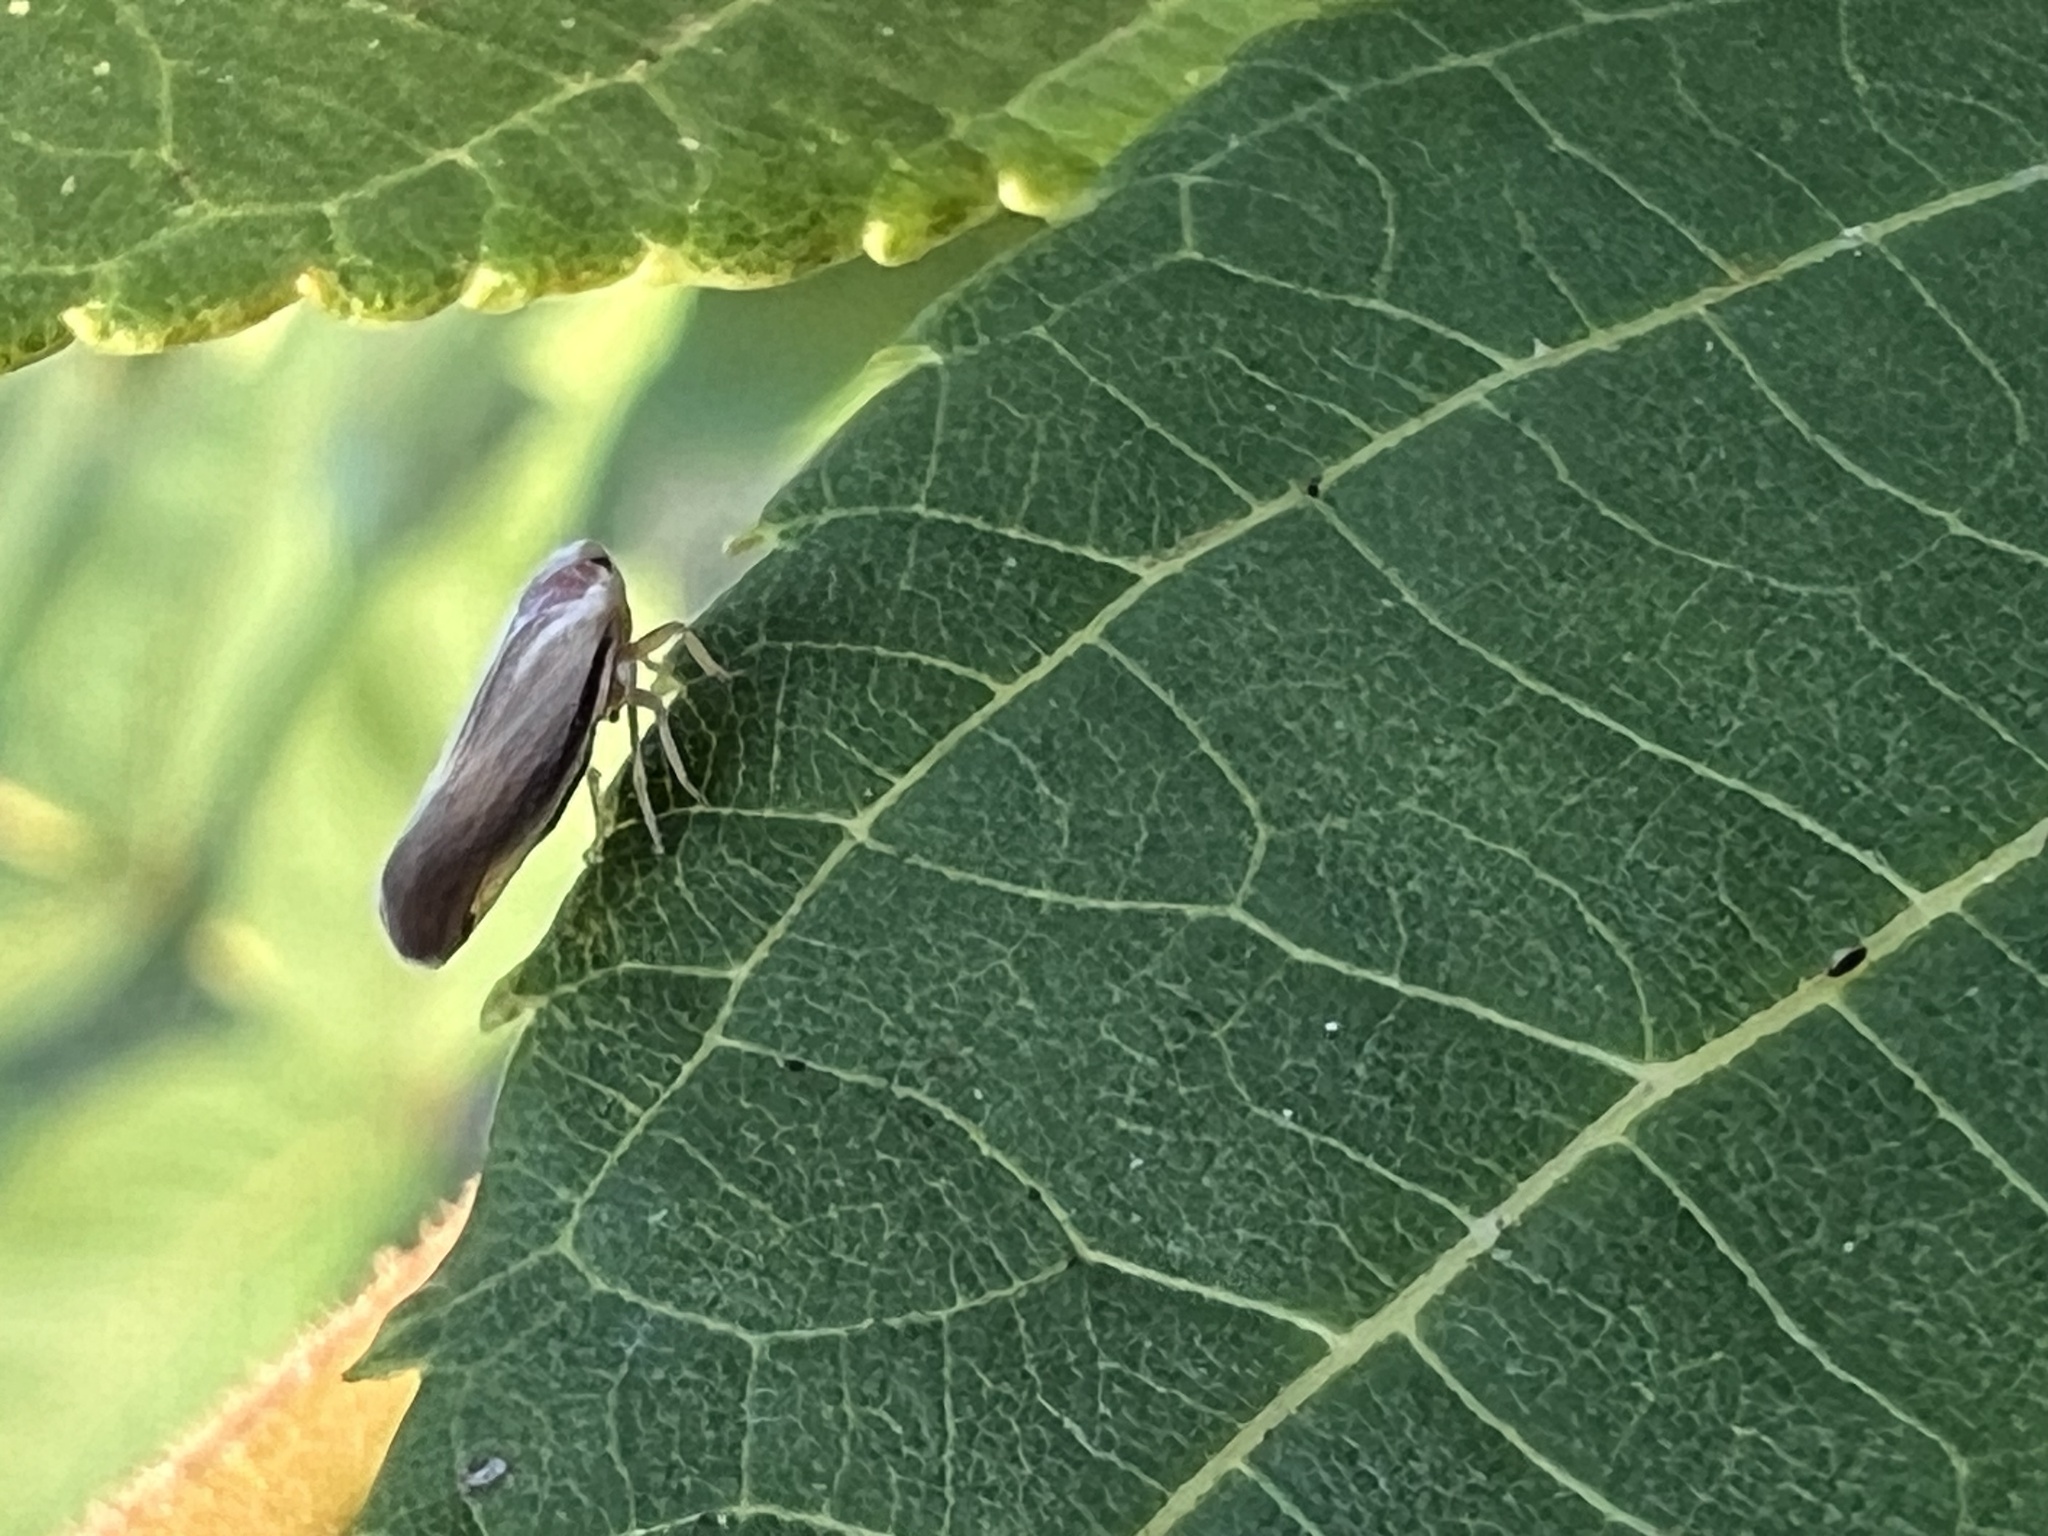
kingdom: Animalia
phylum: Arthropoda
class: Insecta
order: Hemiptera
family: Derbidae
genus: Omolicna
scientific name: Omolicna uhleri
